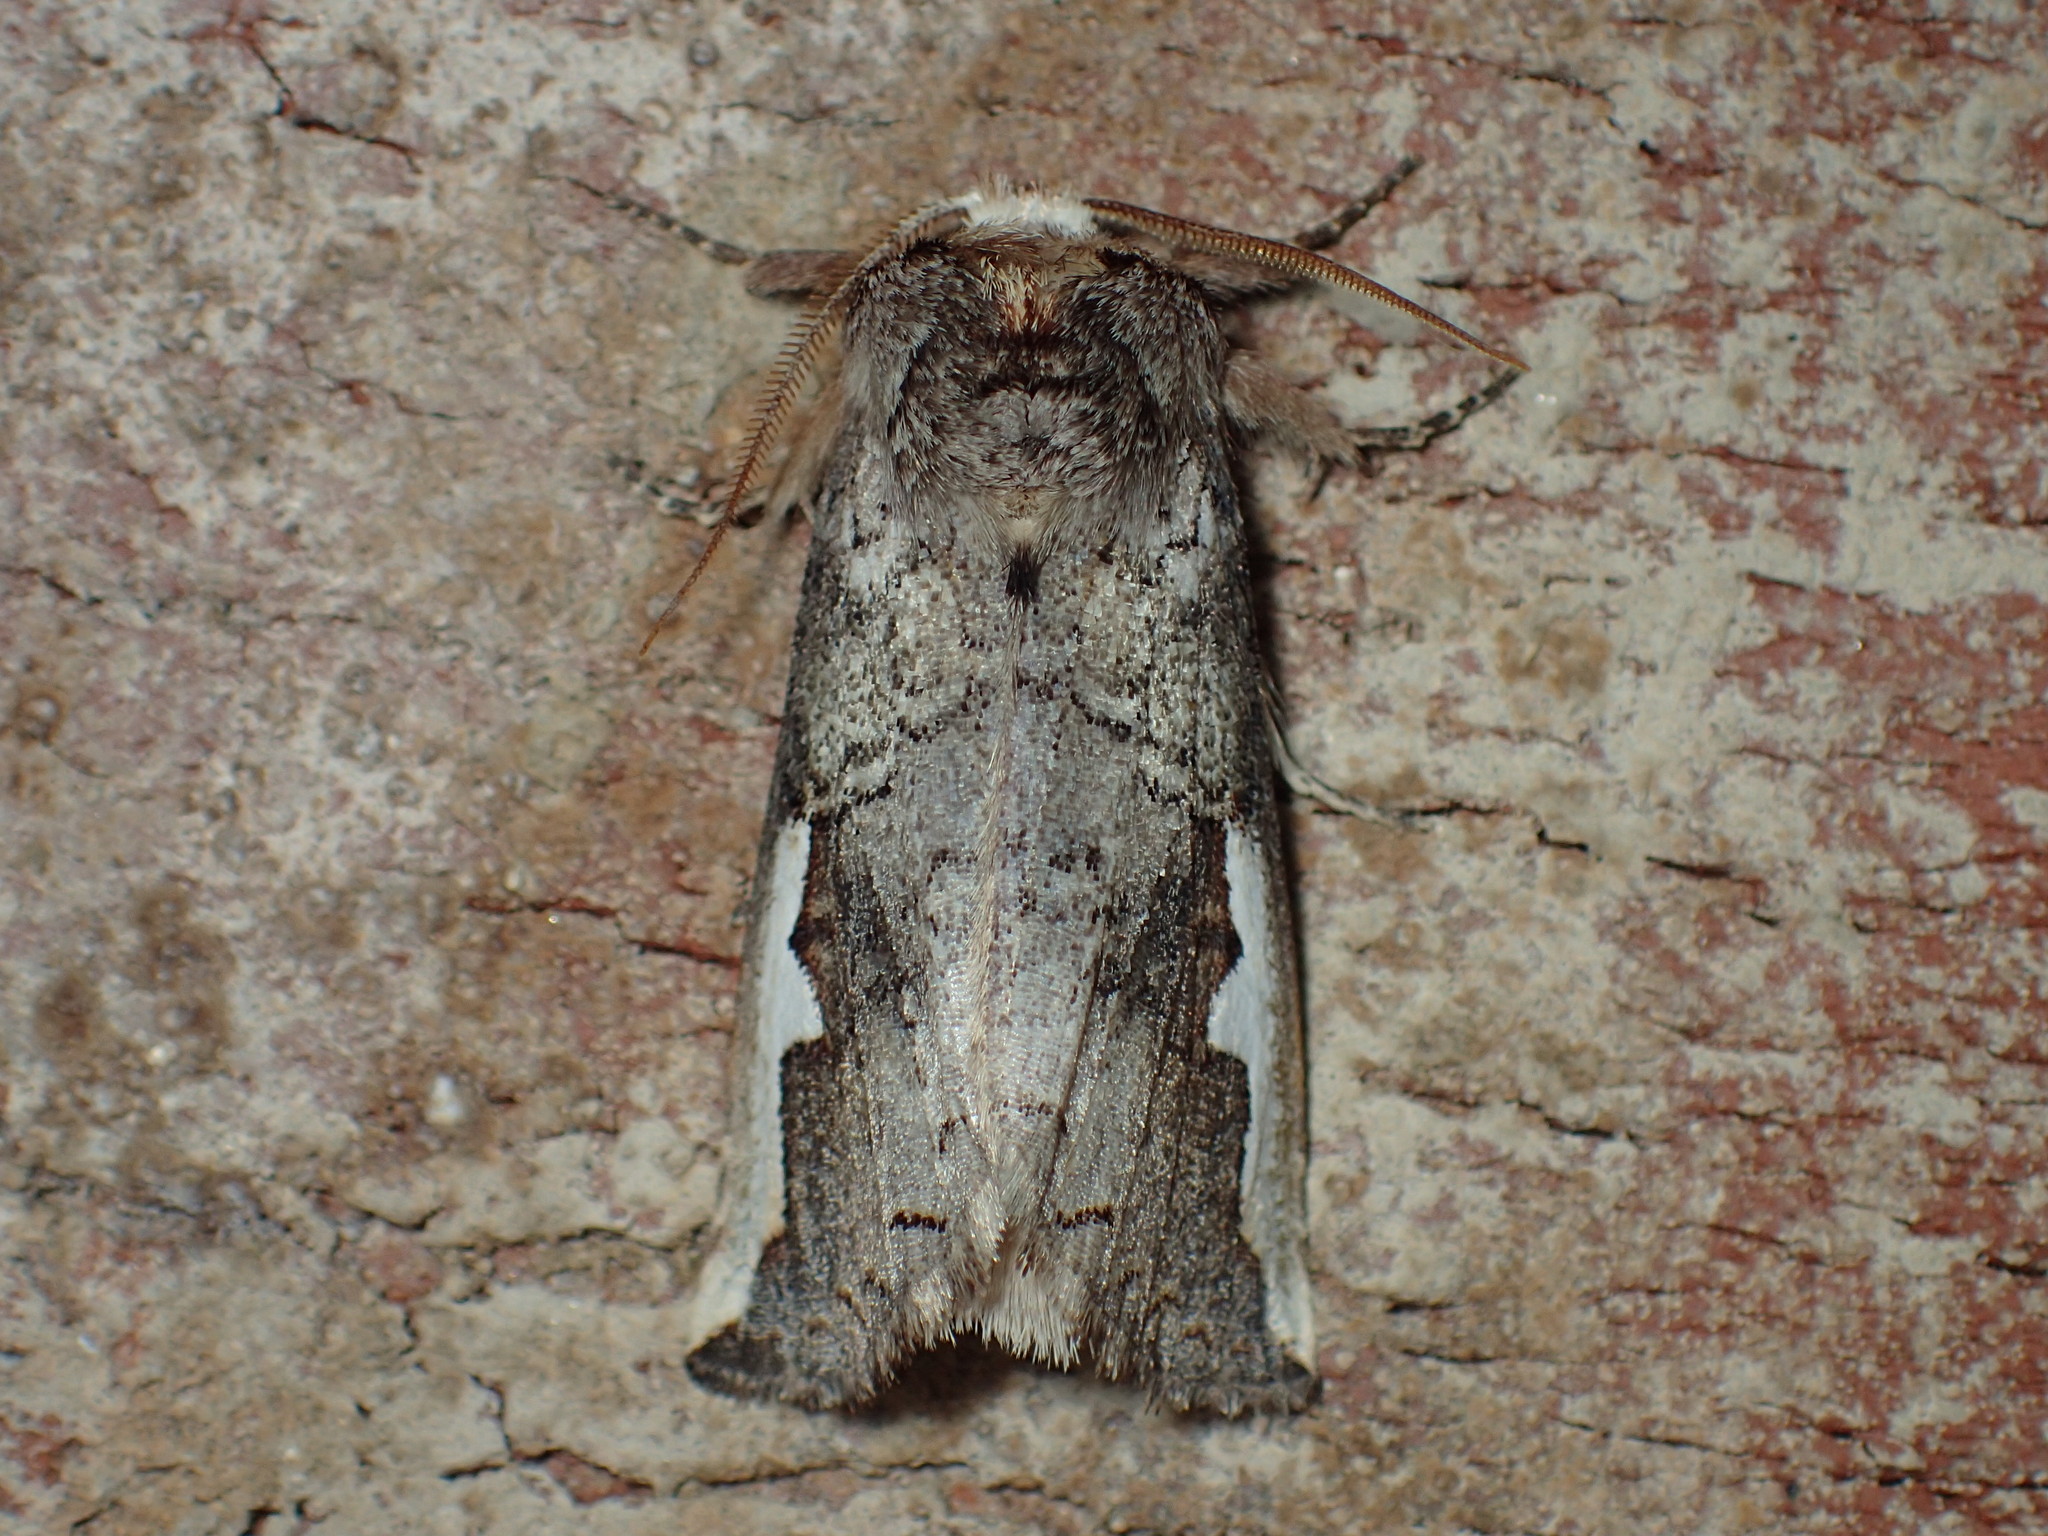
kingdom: Animalia
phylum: Arthropoda
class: Insecta
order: Lepidoptera
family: Notodontidae
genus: Symmerista
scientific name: Symmerista
